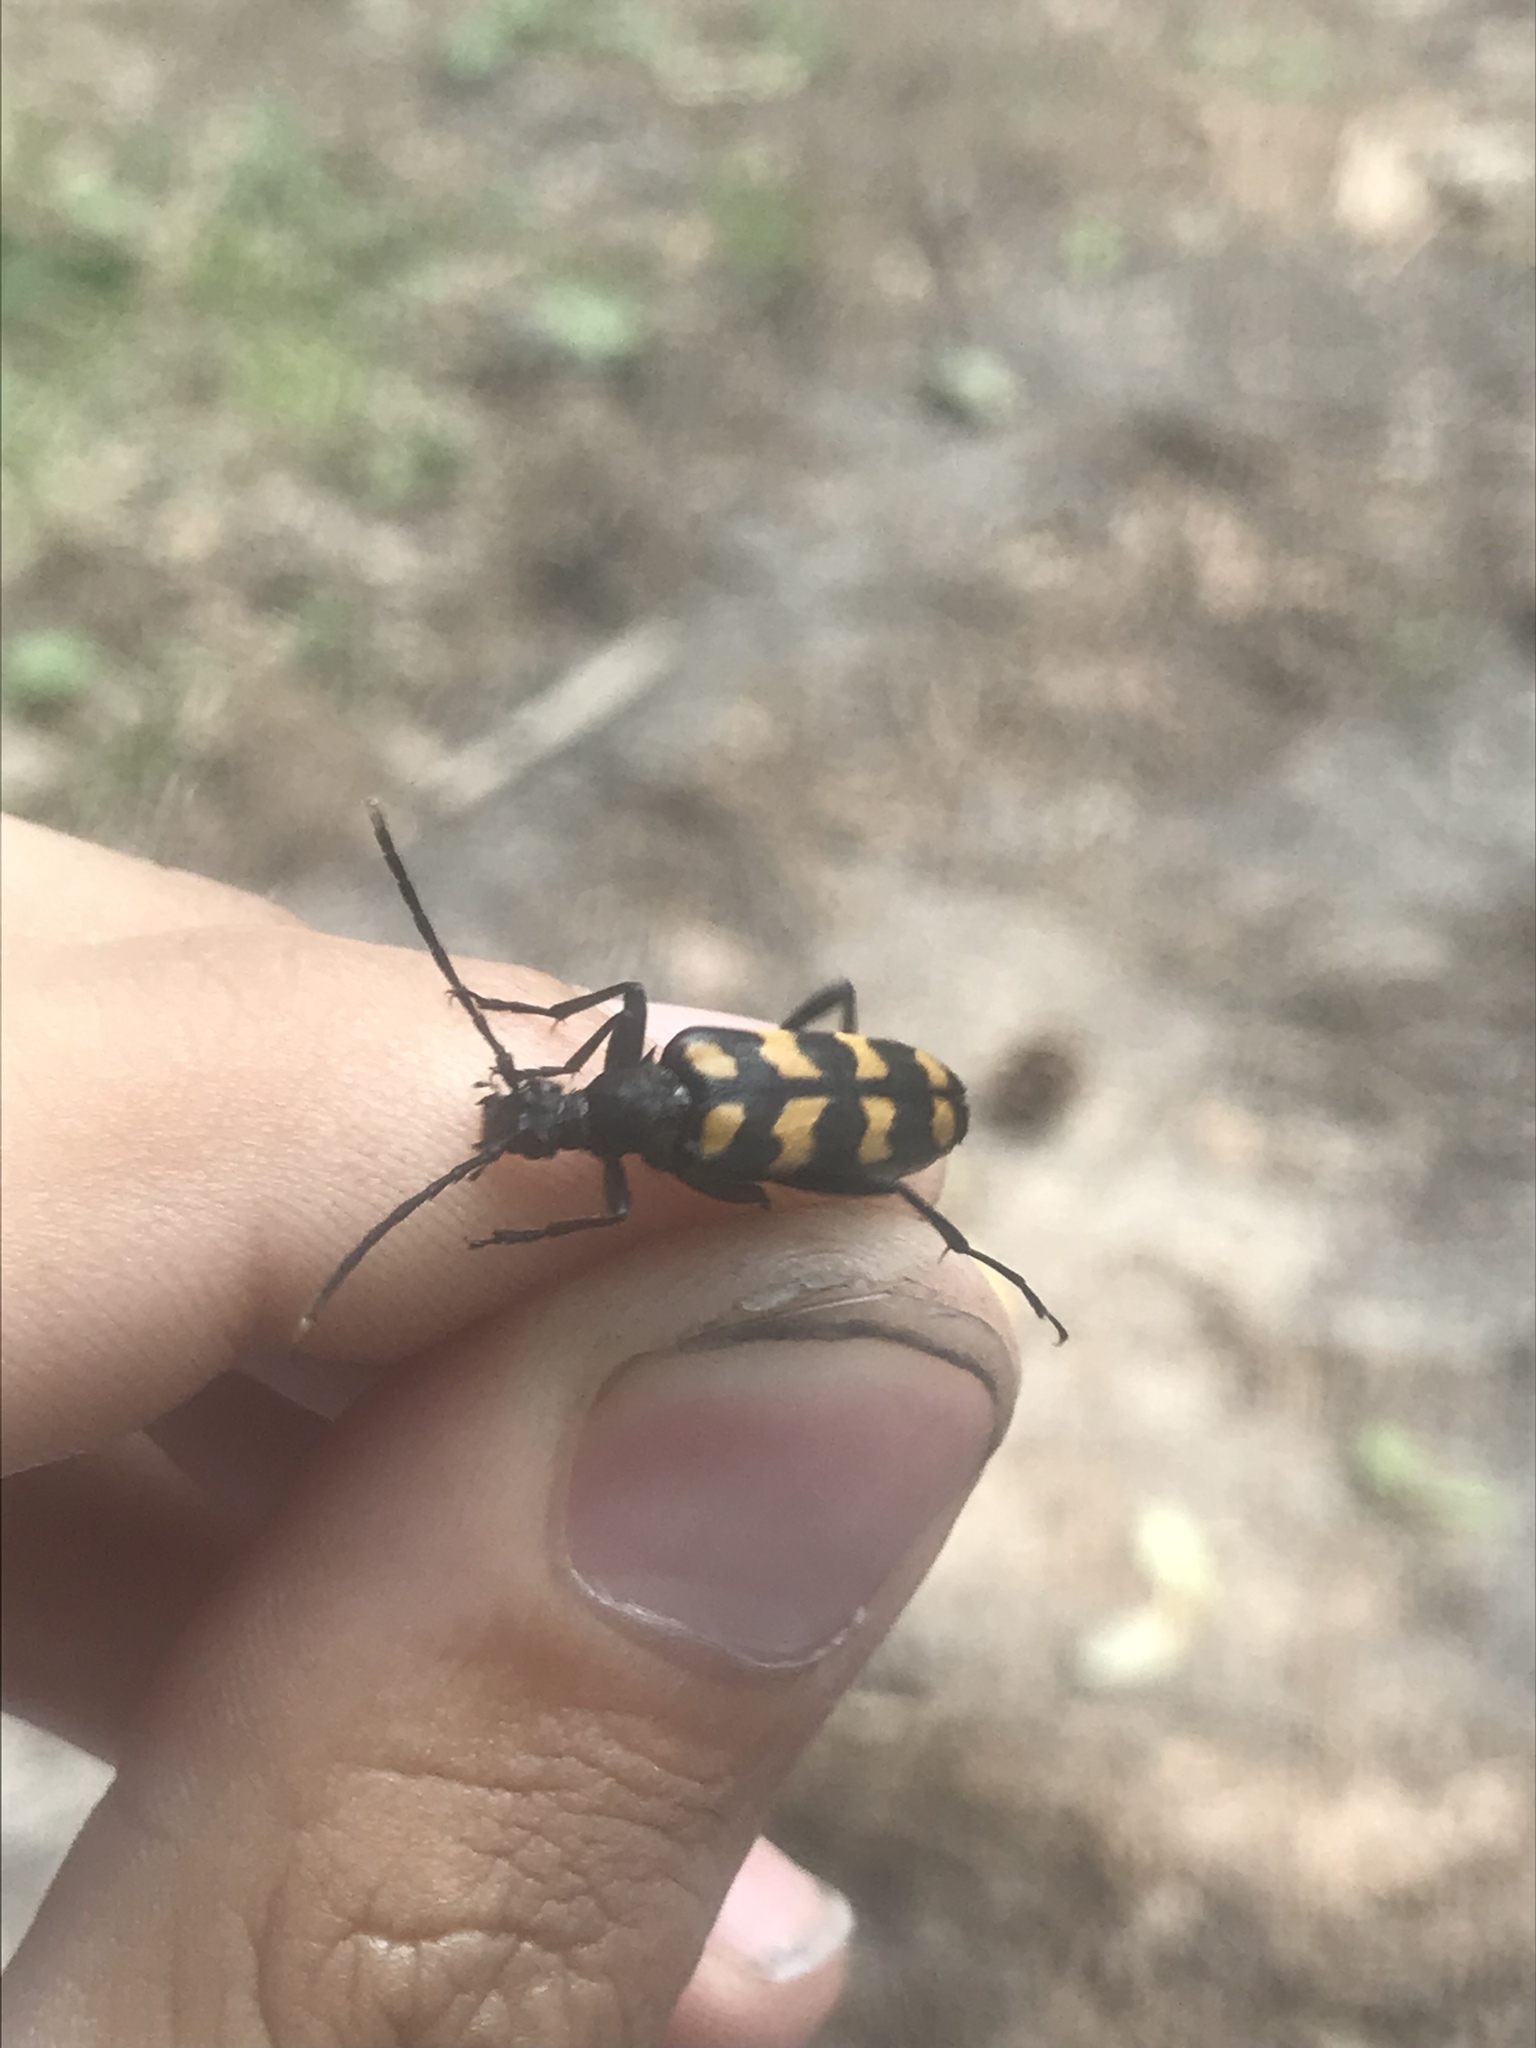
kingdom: Animalia
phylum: Arthropoda
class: Insecta
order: Coleoptera
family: Cerambycidae
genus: Leptura
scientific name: Leptura quadrifasciata
